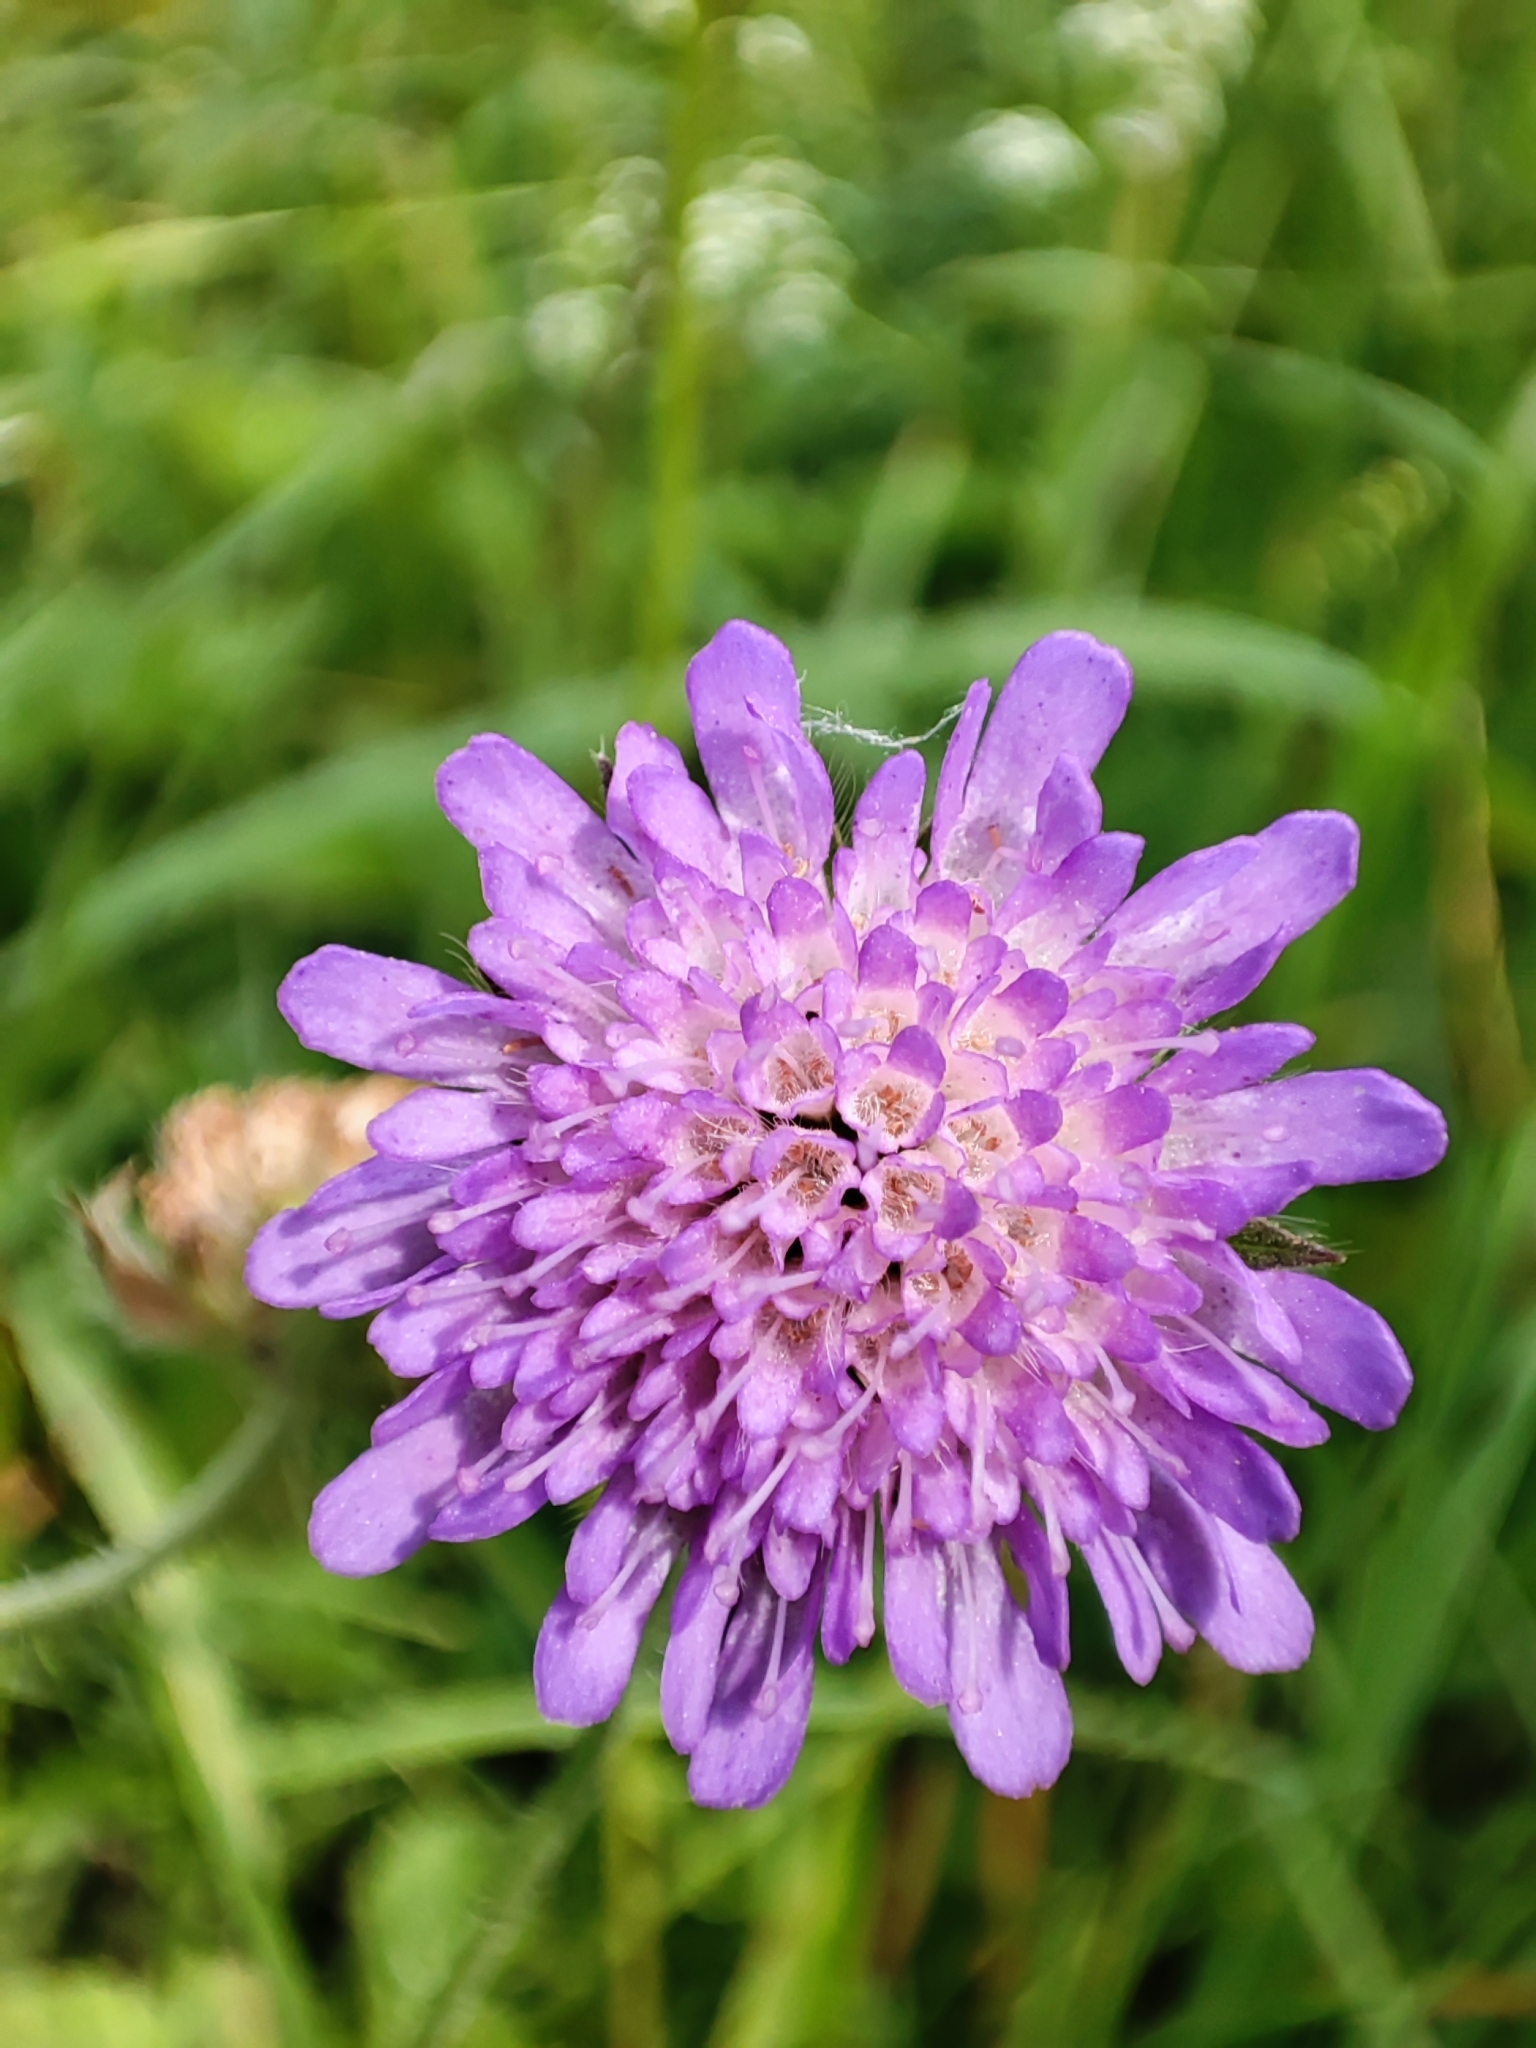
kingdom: Plantae
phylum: Tracheophyta
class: Magnoliopsida
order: Dipsacales
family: Caprifoliaceae
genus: Knautia
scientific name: Knautia arvensis
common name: Field scabiosa
